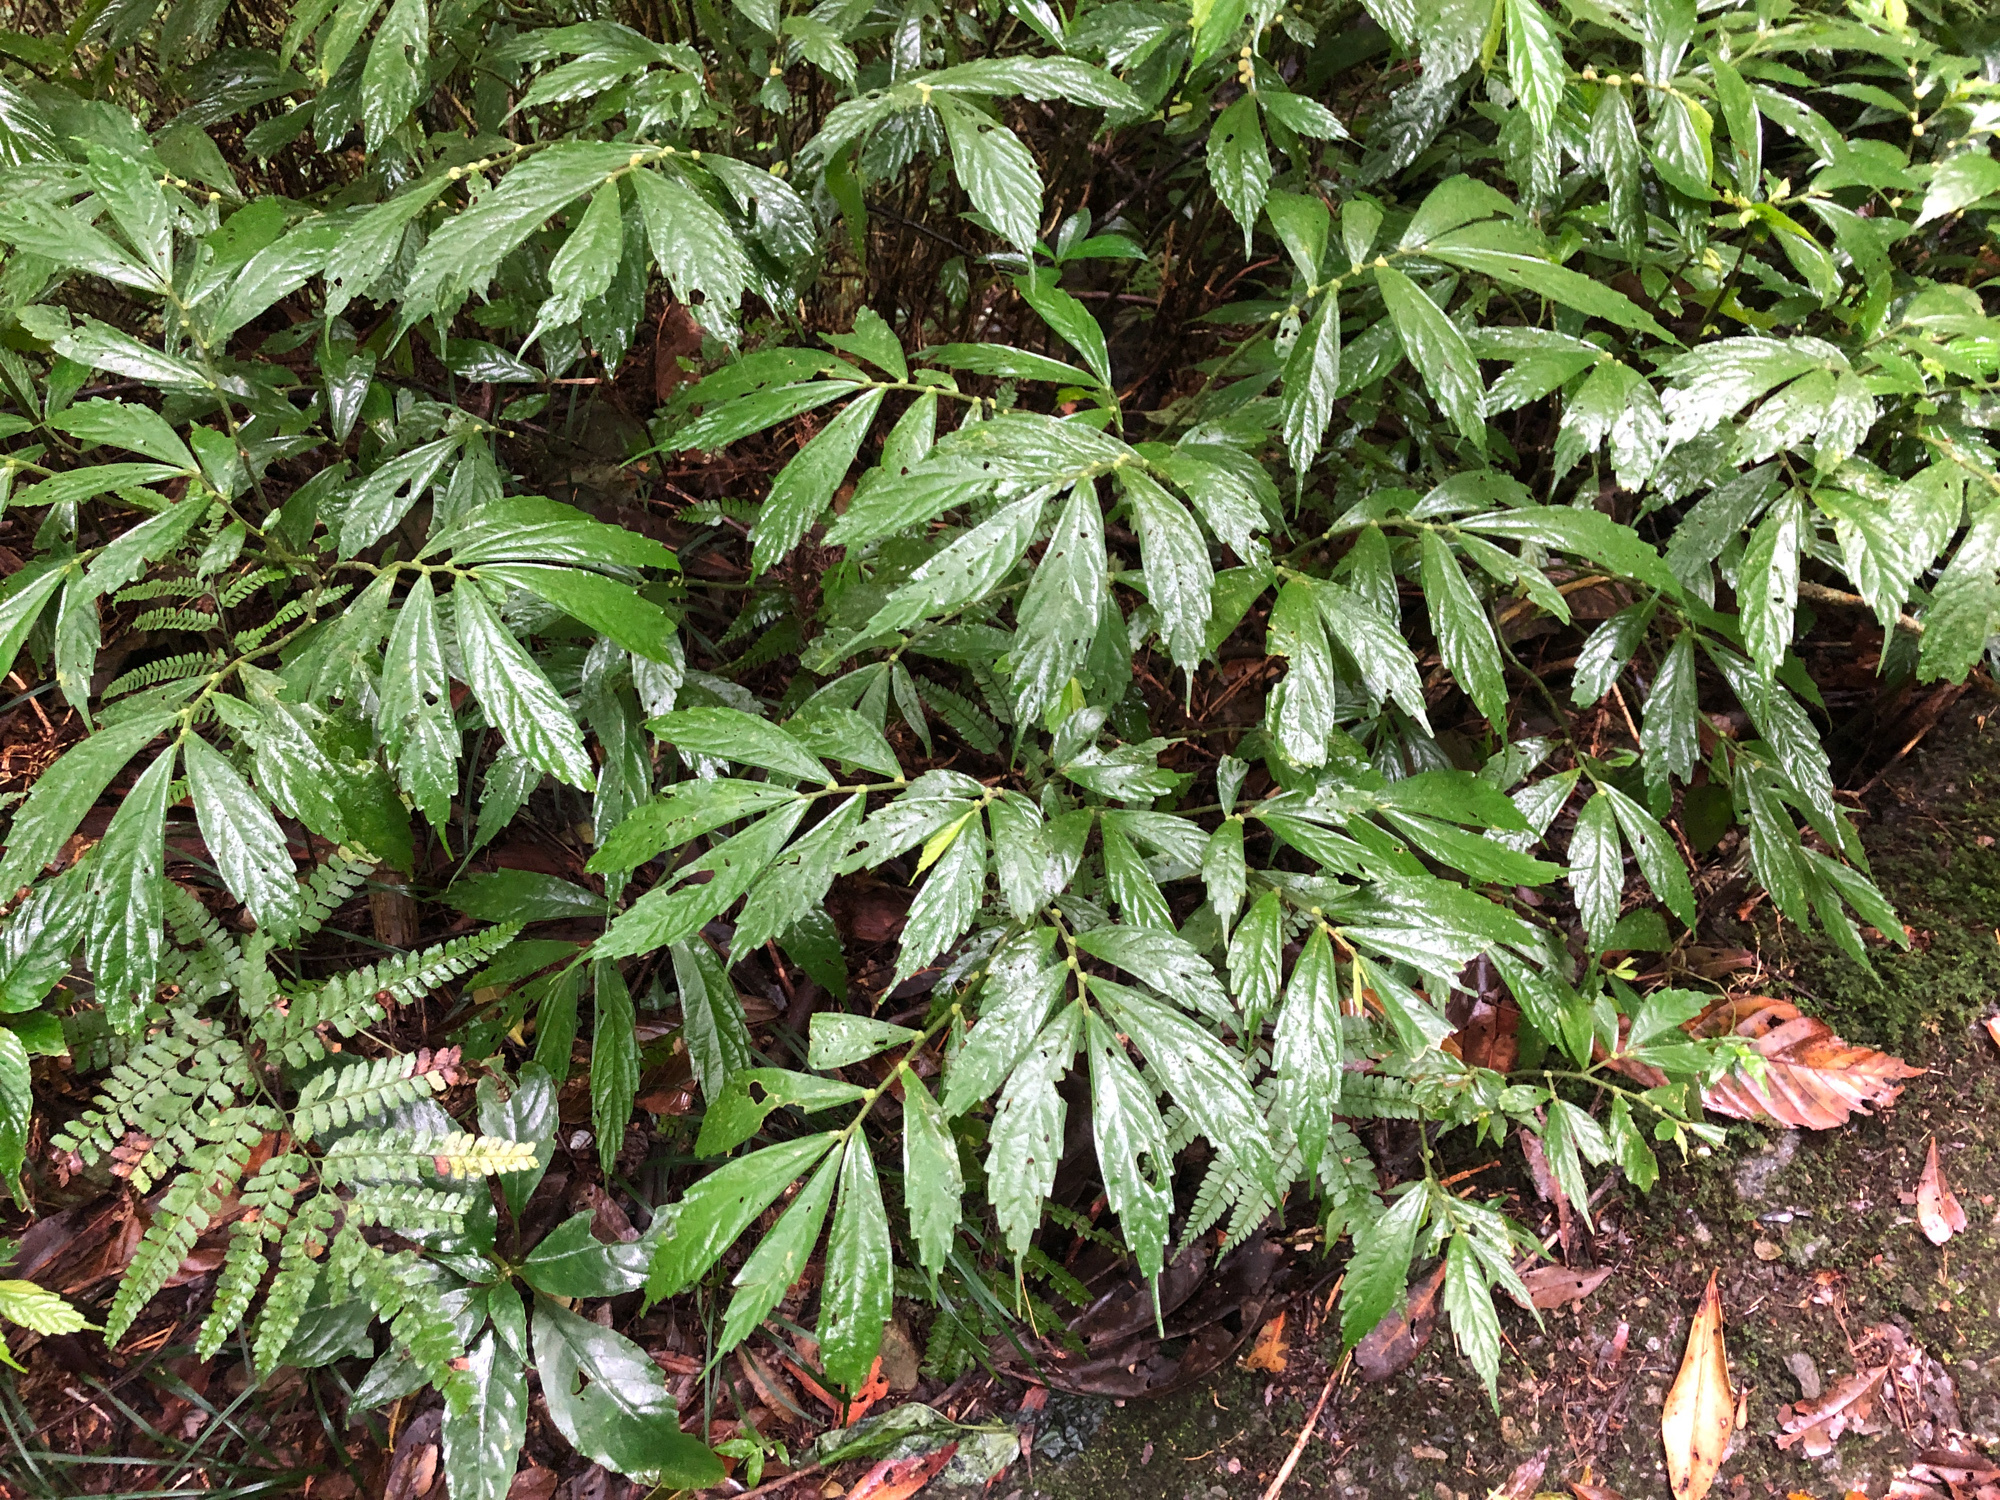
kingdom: Plantae
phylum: Tracheophyta
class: Magnoliopsida
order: Rosales
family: Urticaceae
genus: Elatostema
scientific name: Elatostema lineolatum
